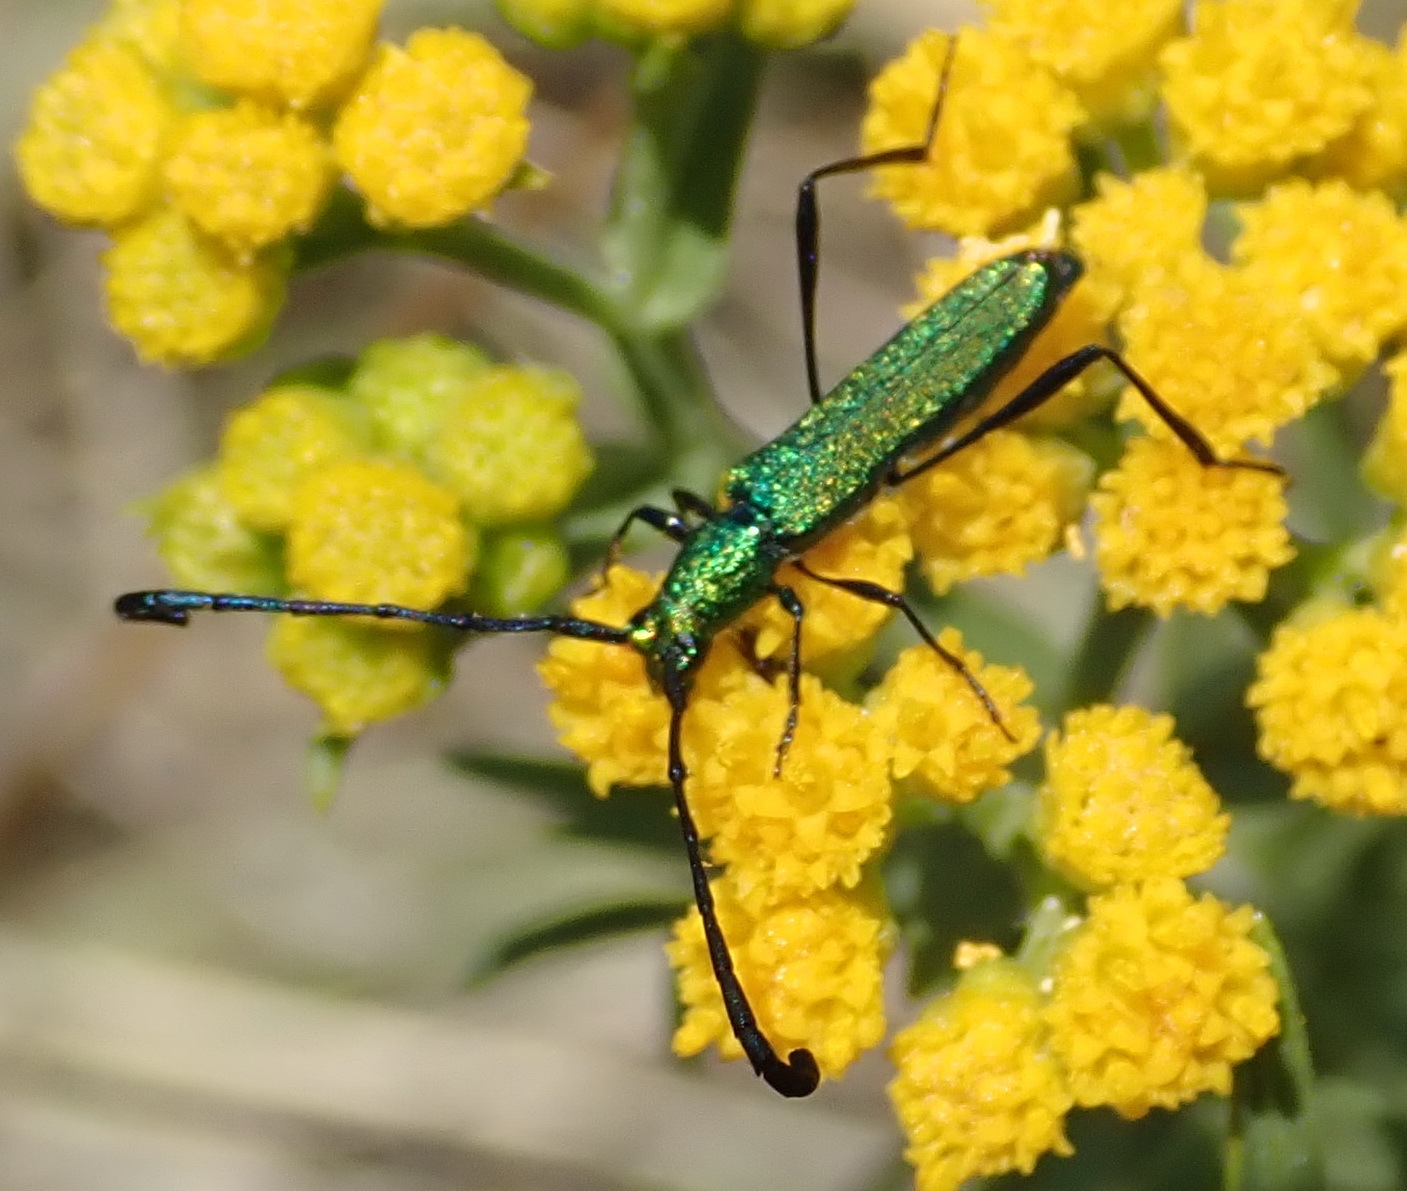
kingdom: Animalia
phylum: Arthropoda
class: Insecta
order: Coleoptera
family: Cerambycidae
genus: Hypocrites
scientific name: Hypocrites
